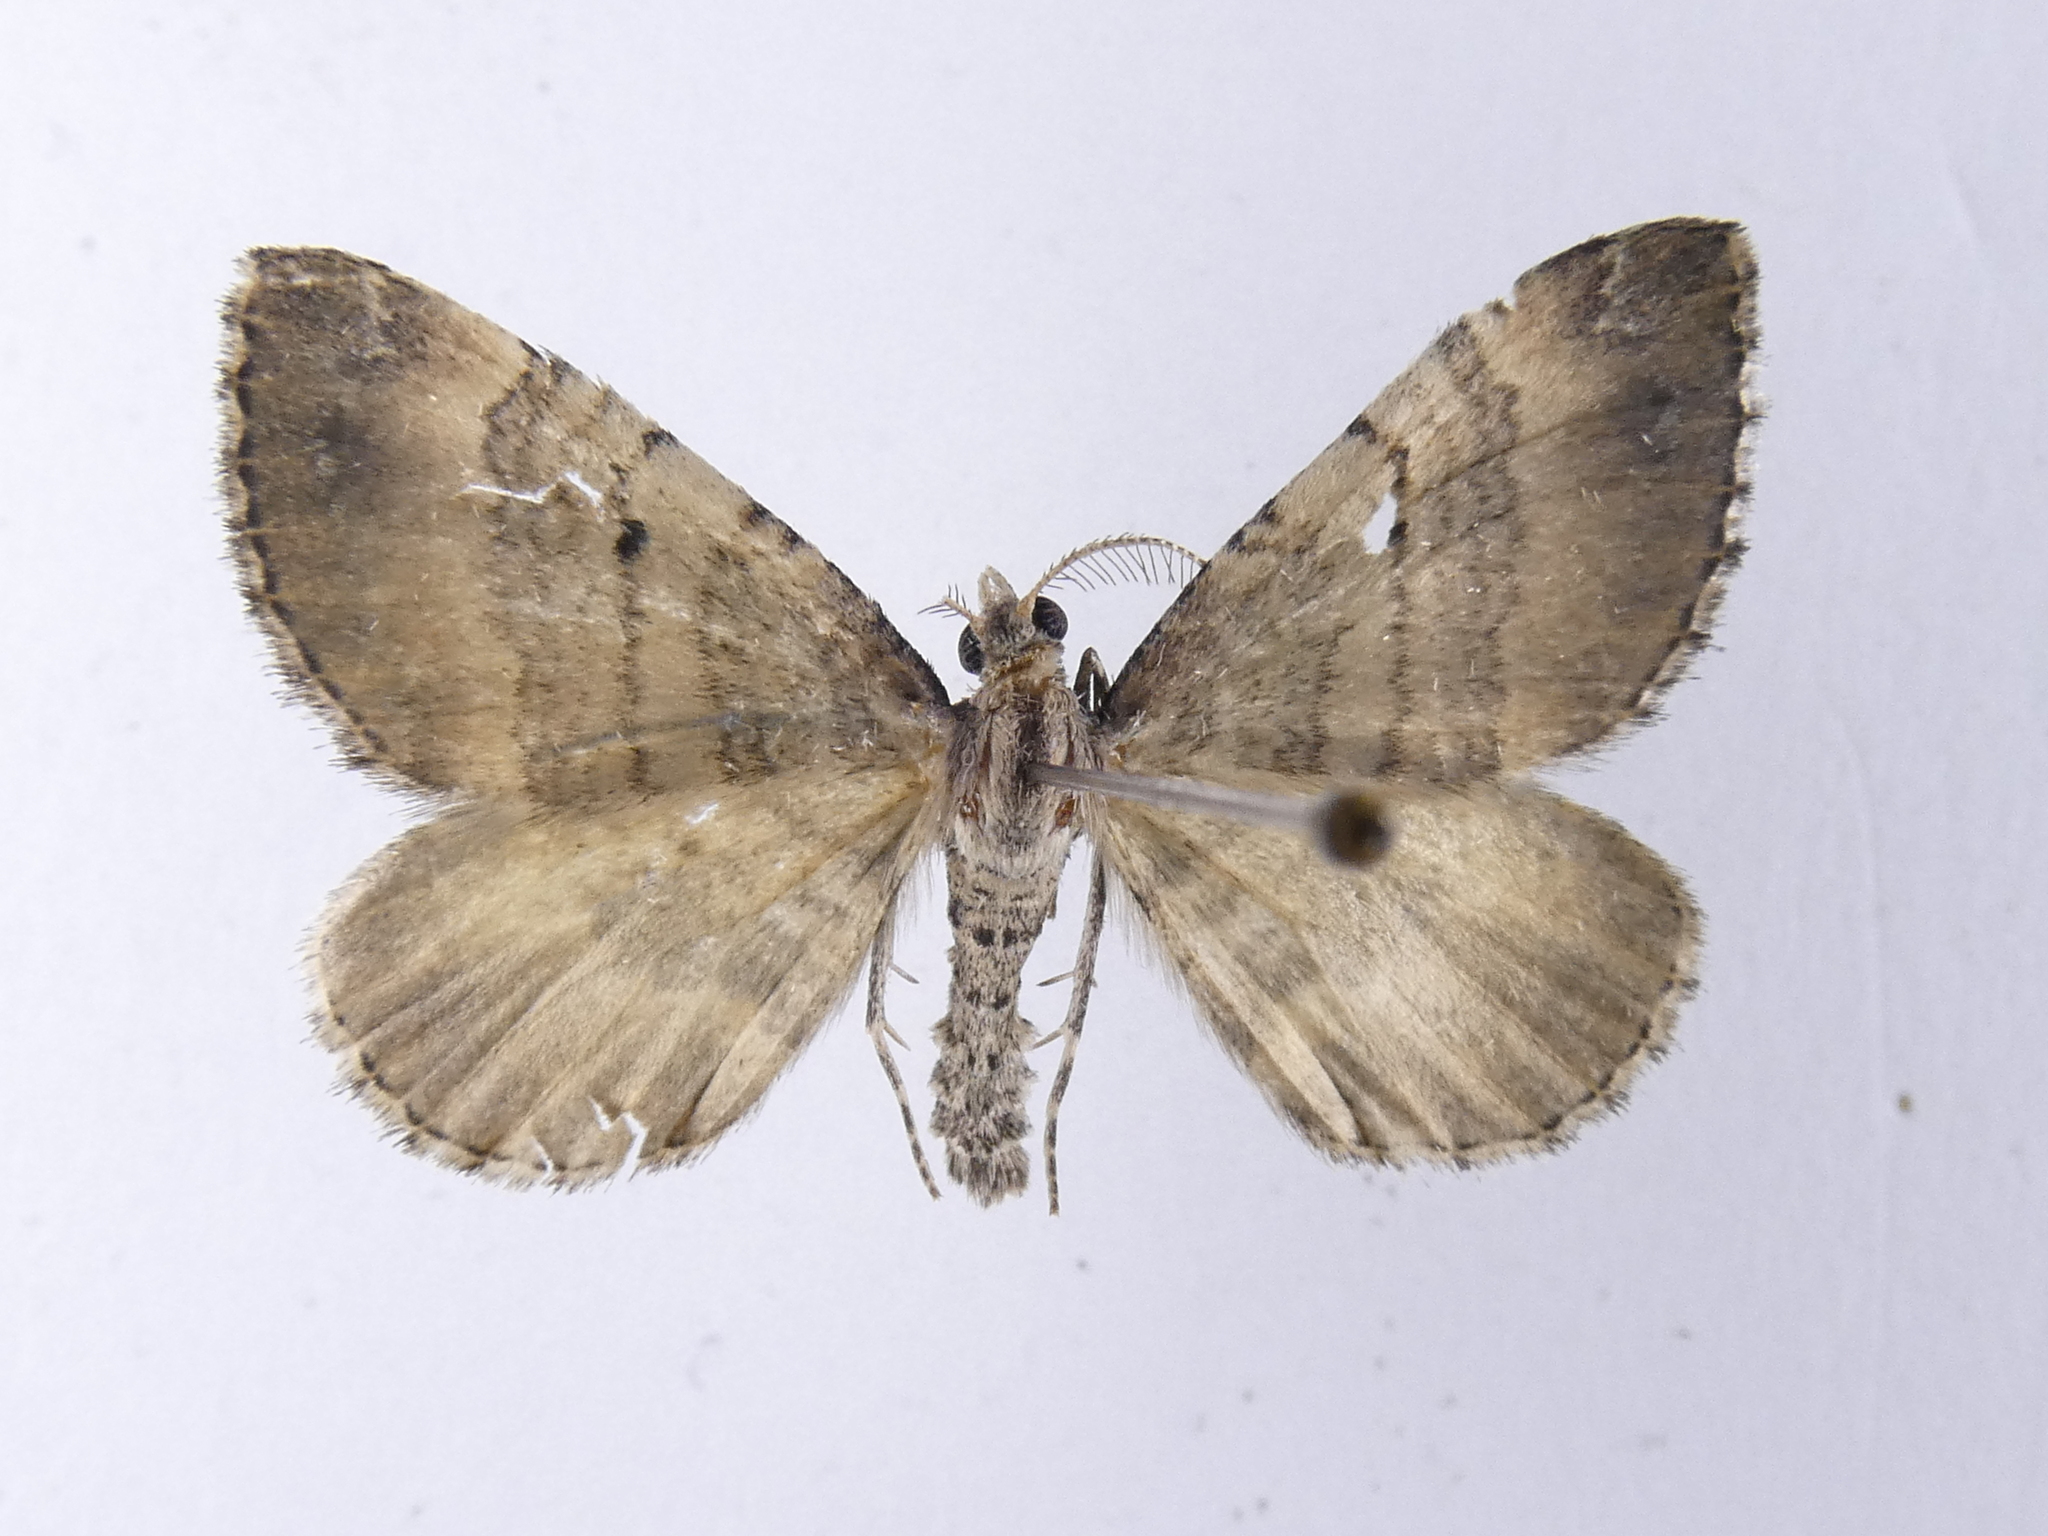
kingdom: Animalia
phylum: Arthropoda
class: Insecta
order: Lepidoptera
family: Geometridae
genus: Asaphodes
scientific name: Asaphodes aegrota
